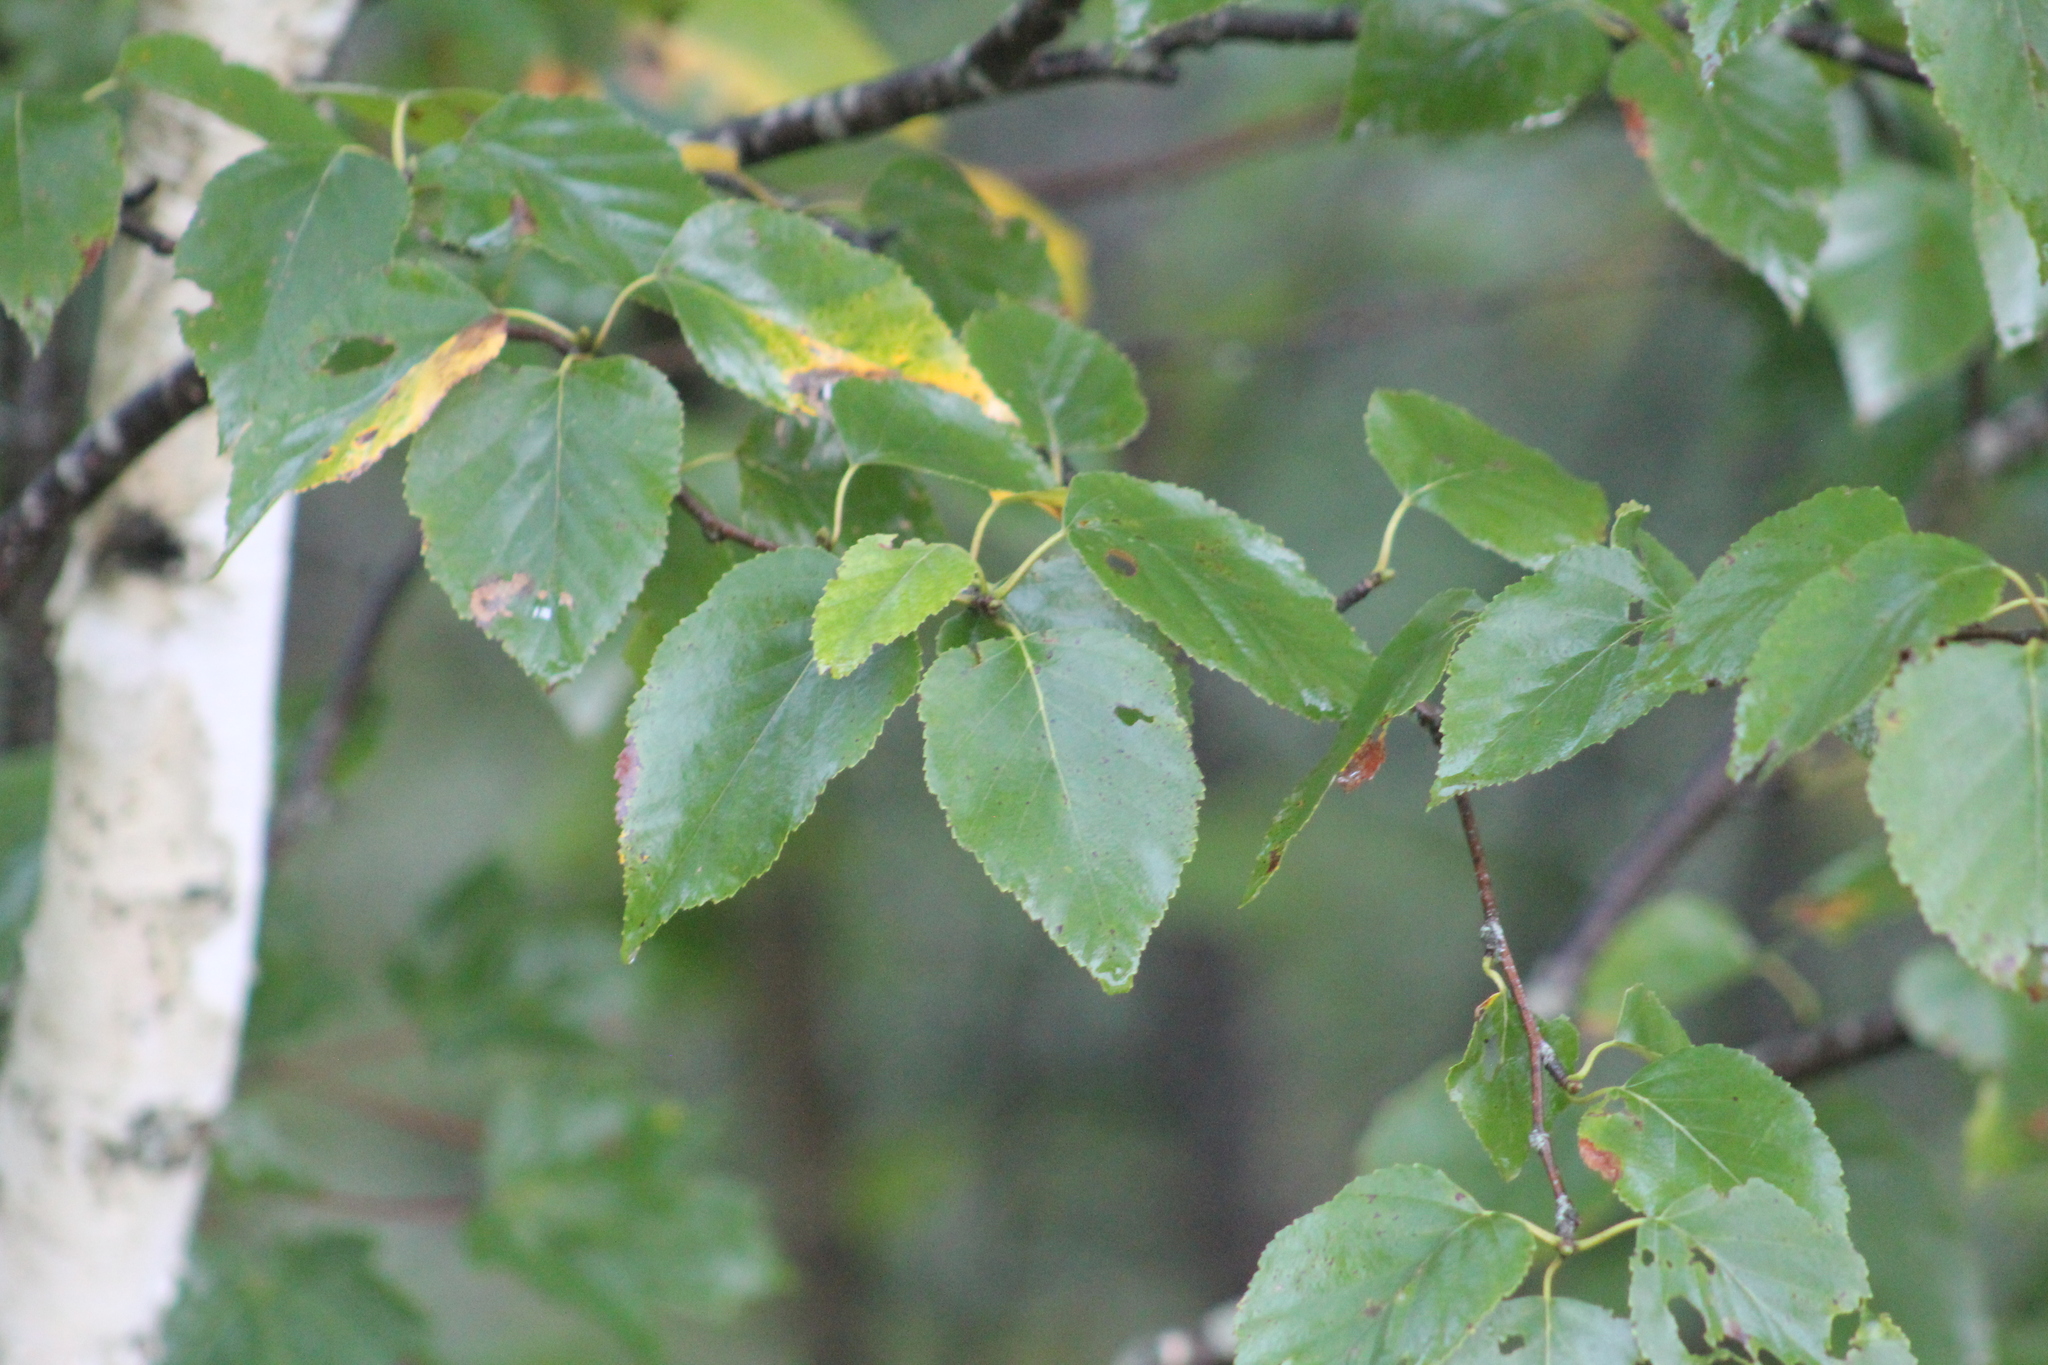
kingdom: Plantae
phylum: Tracheophyta
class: Magnoliopsida
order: Fagales
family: Betulaceae
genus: Betula
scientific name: Betula papyrifera
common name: Paper birch
